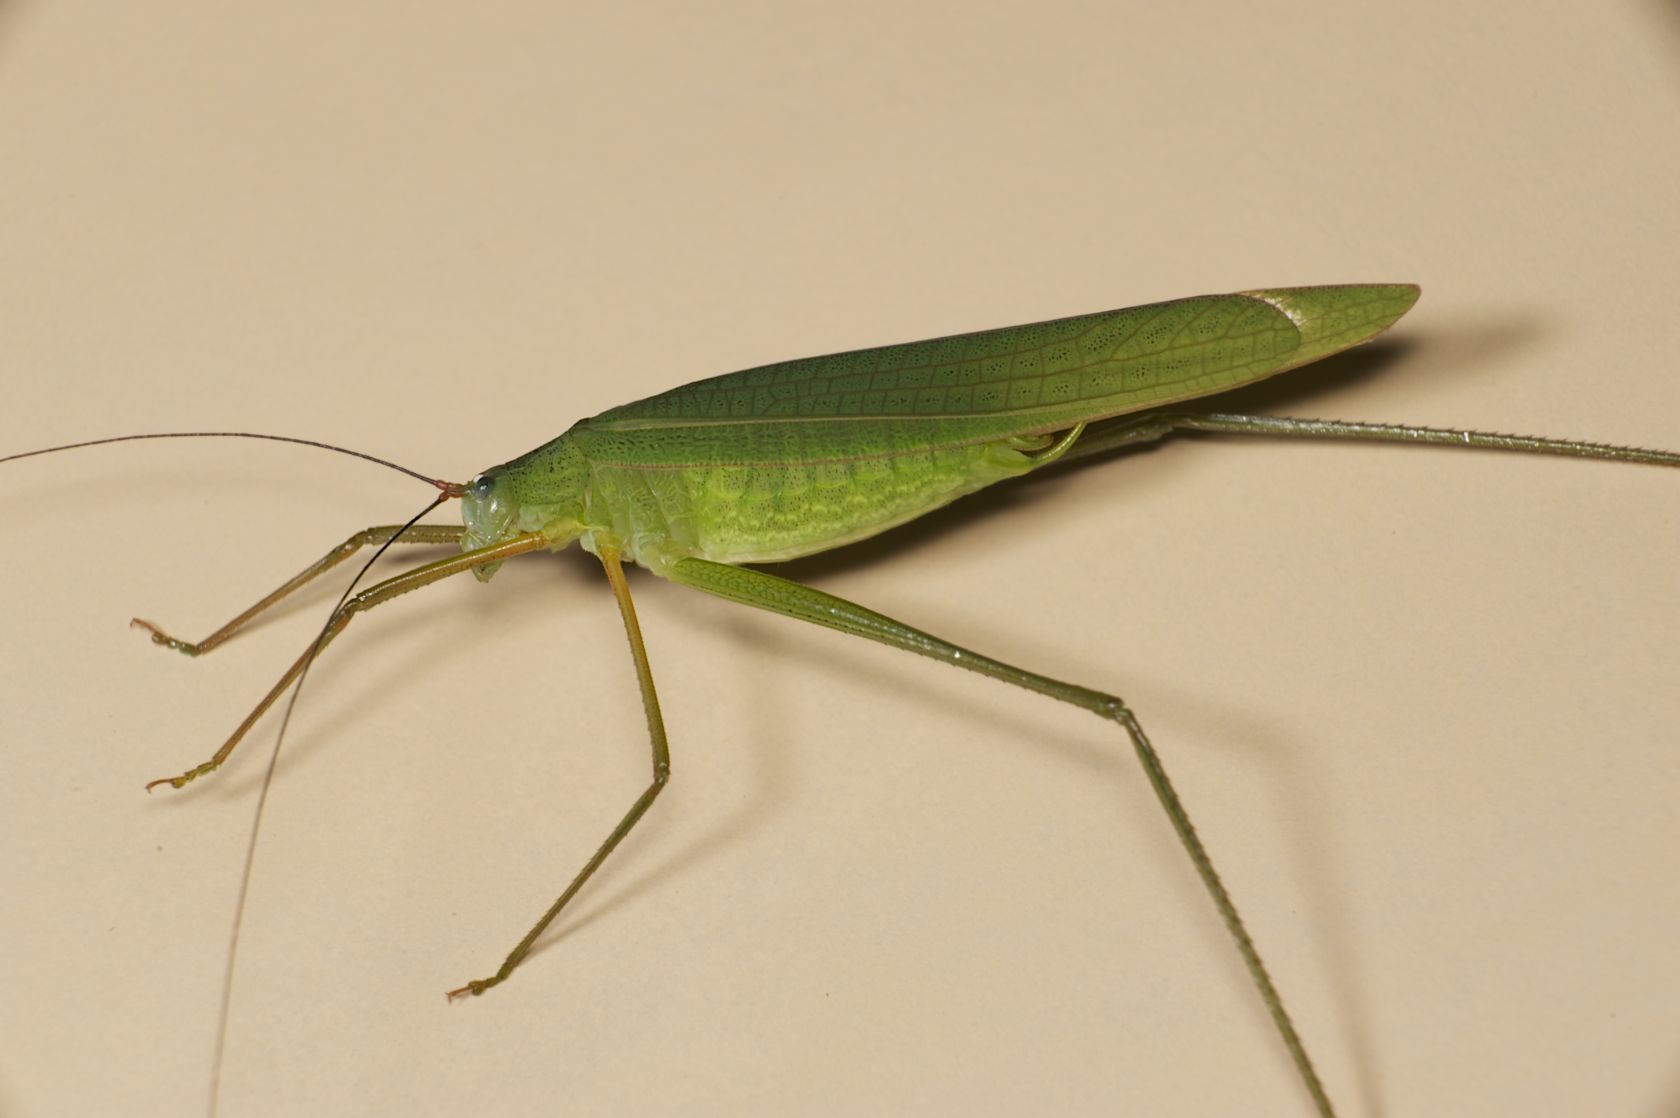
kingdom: Animalia
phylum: Arthropoda
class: Insecta
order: Orthoptera
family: Tettigoniidae
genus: Elimaea
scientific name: Elimaea punctifera
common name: Narrow-winged katydid
